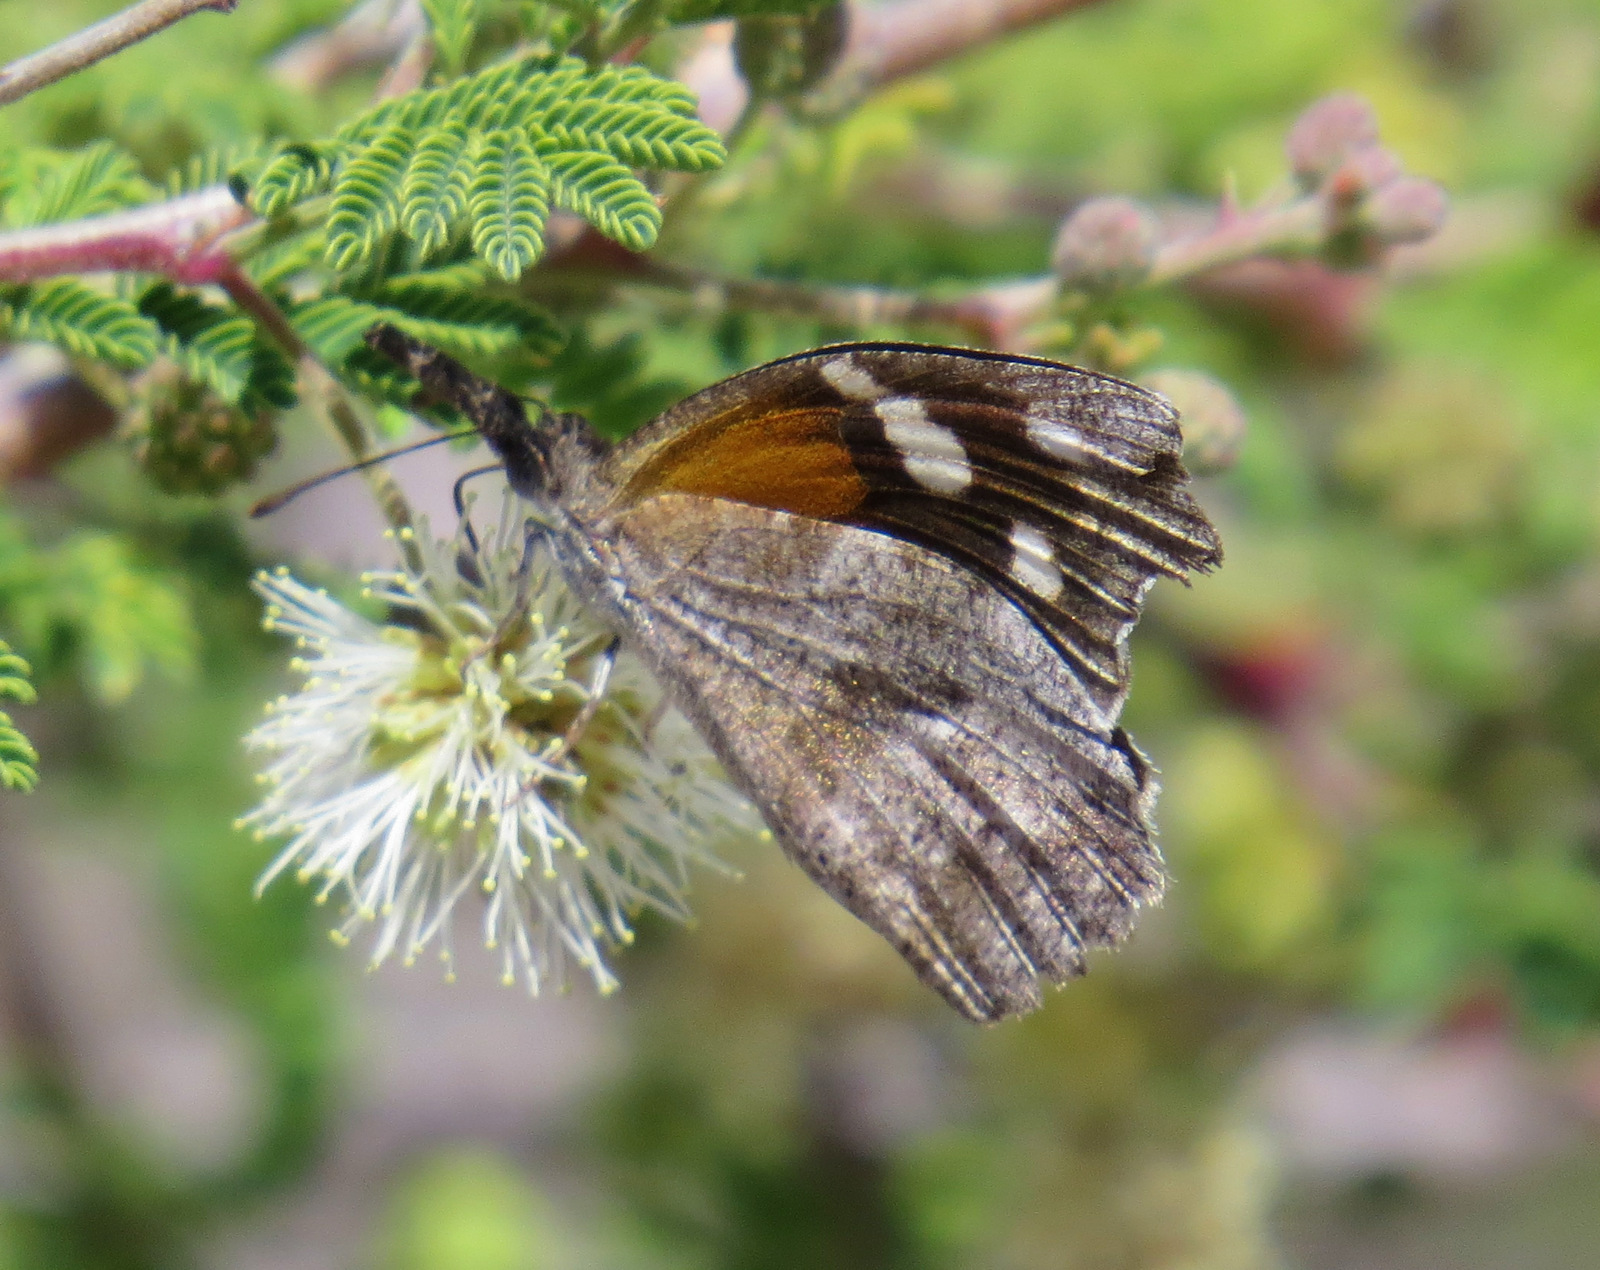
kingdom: Animalia
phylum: Arthropoda
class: Insecta
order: Lepidoptera
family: Nymphalidae
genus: Libytheana
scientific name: Libytheana carinenta
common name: American snout
